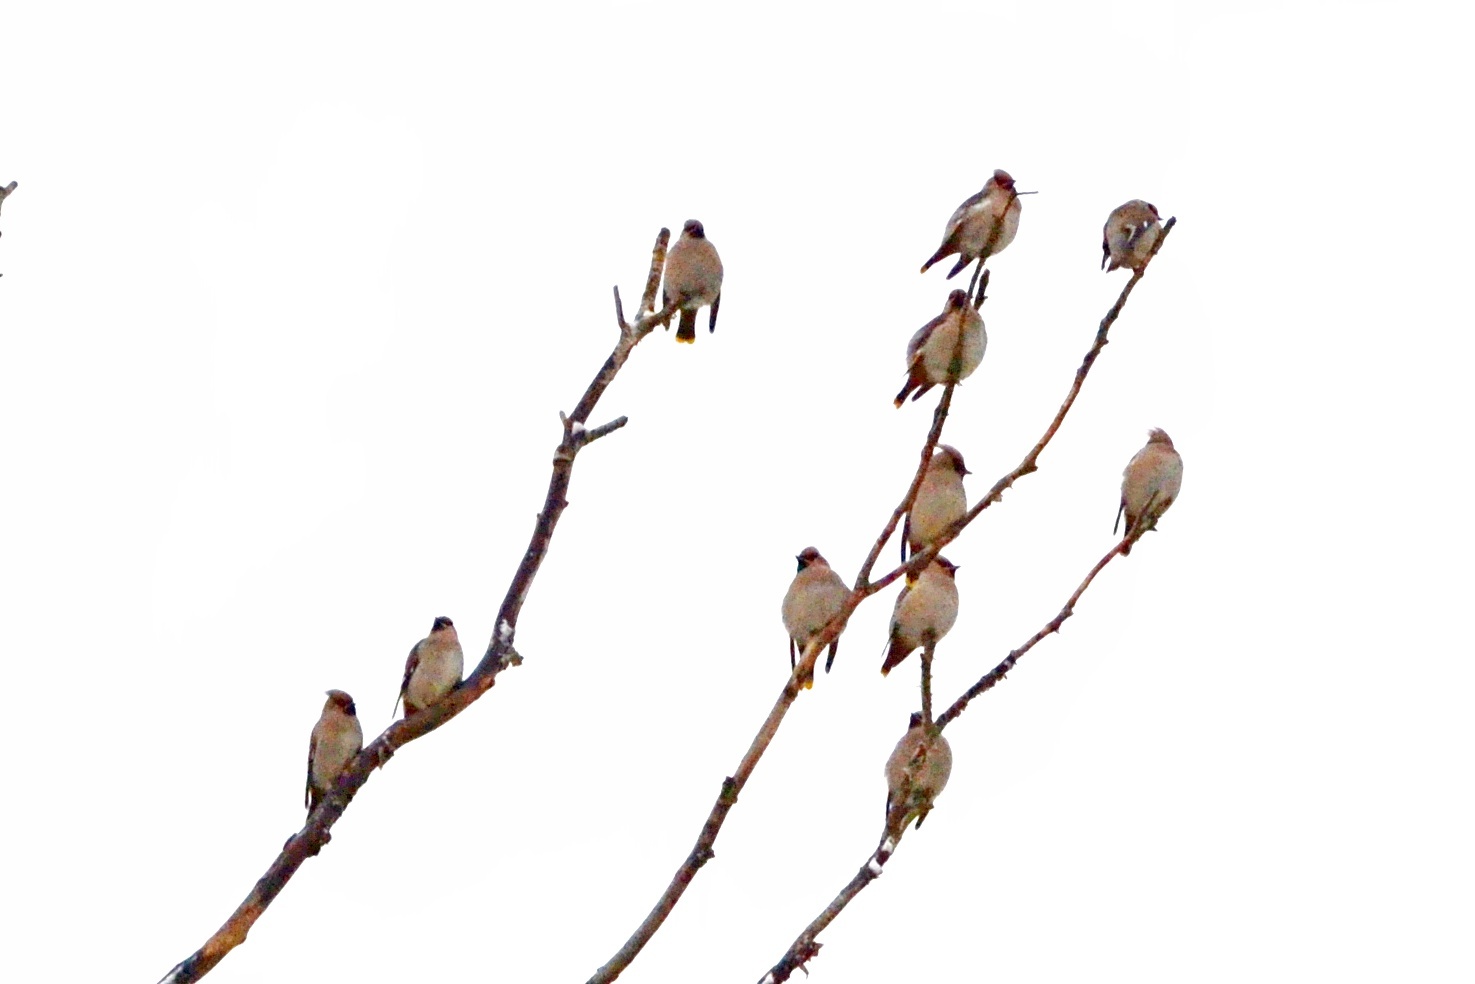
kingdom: Animalia
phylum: Chordata
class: Aves
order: Passeriformes
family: Bombycillidae
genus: Bombycilla
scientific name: Bombycilla garrulus
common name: Bohemian waxwing
